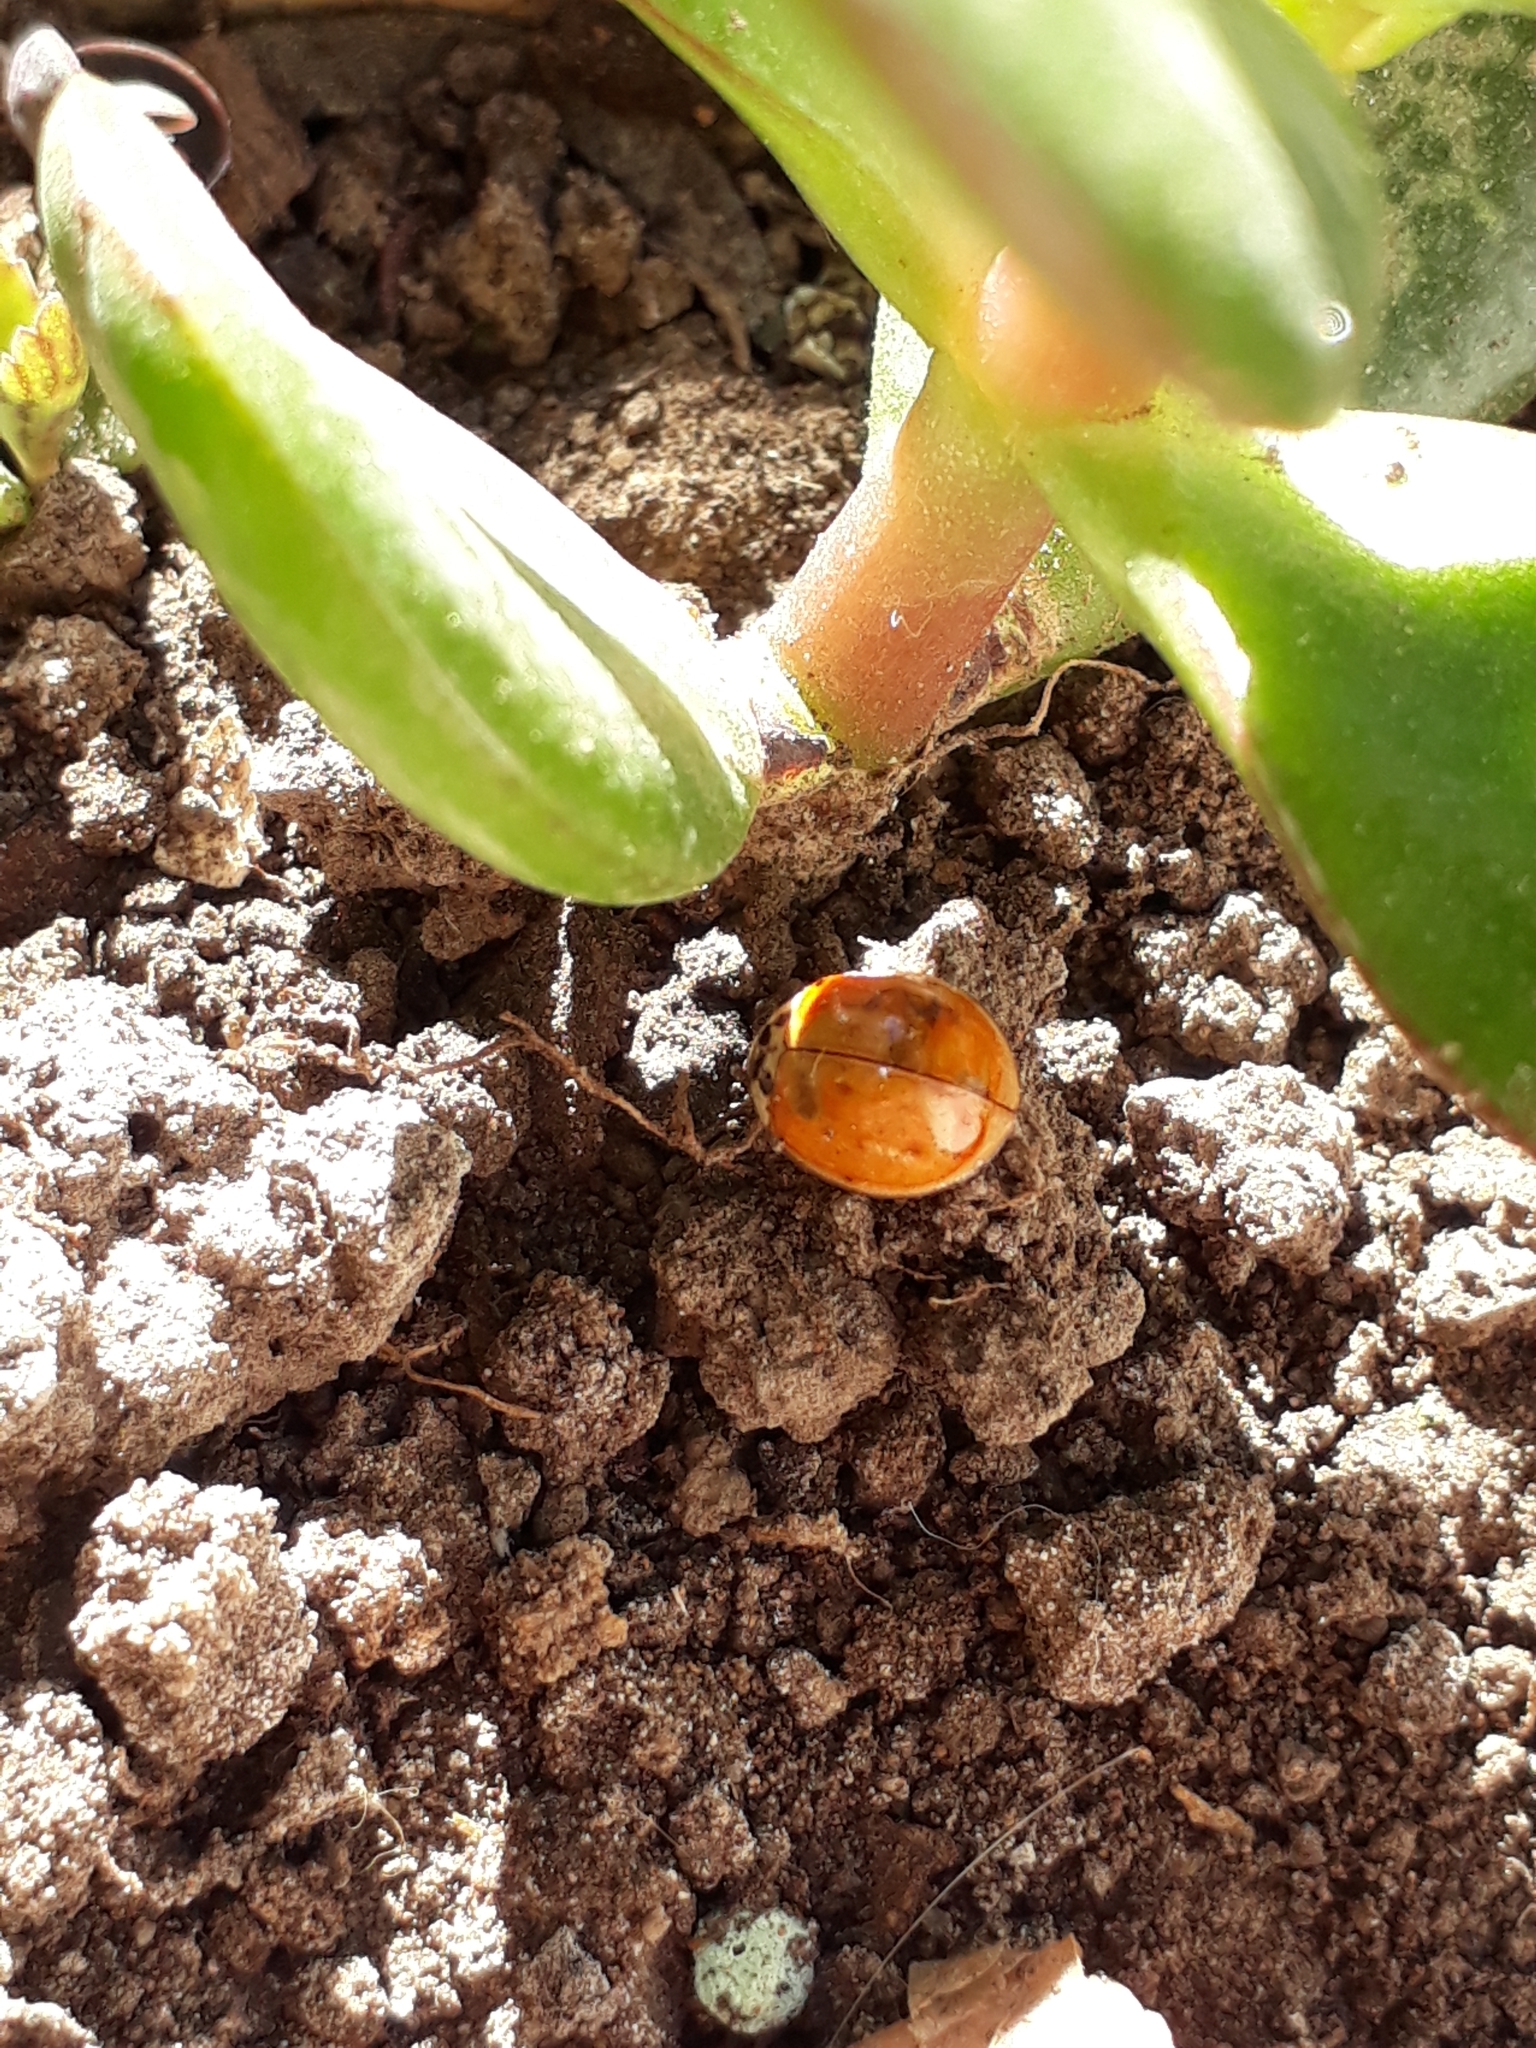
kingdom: Animalia
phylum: Arthropoda
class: Insecta
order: Coleoptera
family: Coccinellidae
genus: Harmonia
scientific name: Harmonia axyridis
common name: Harlequin ladybird
